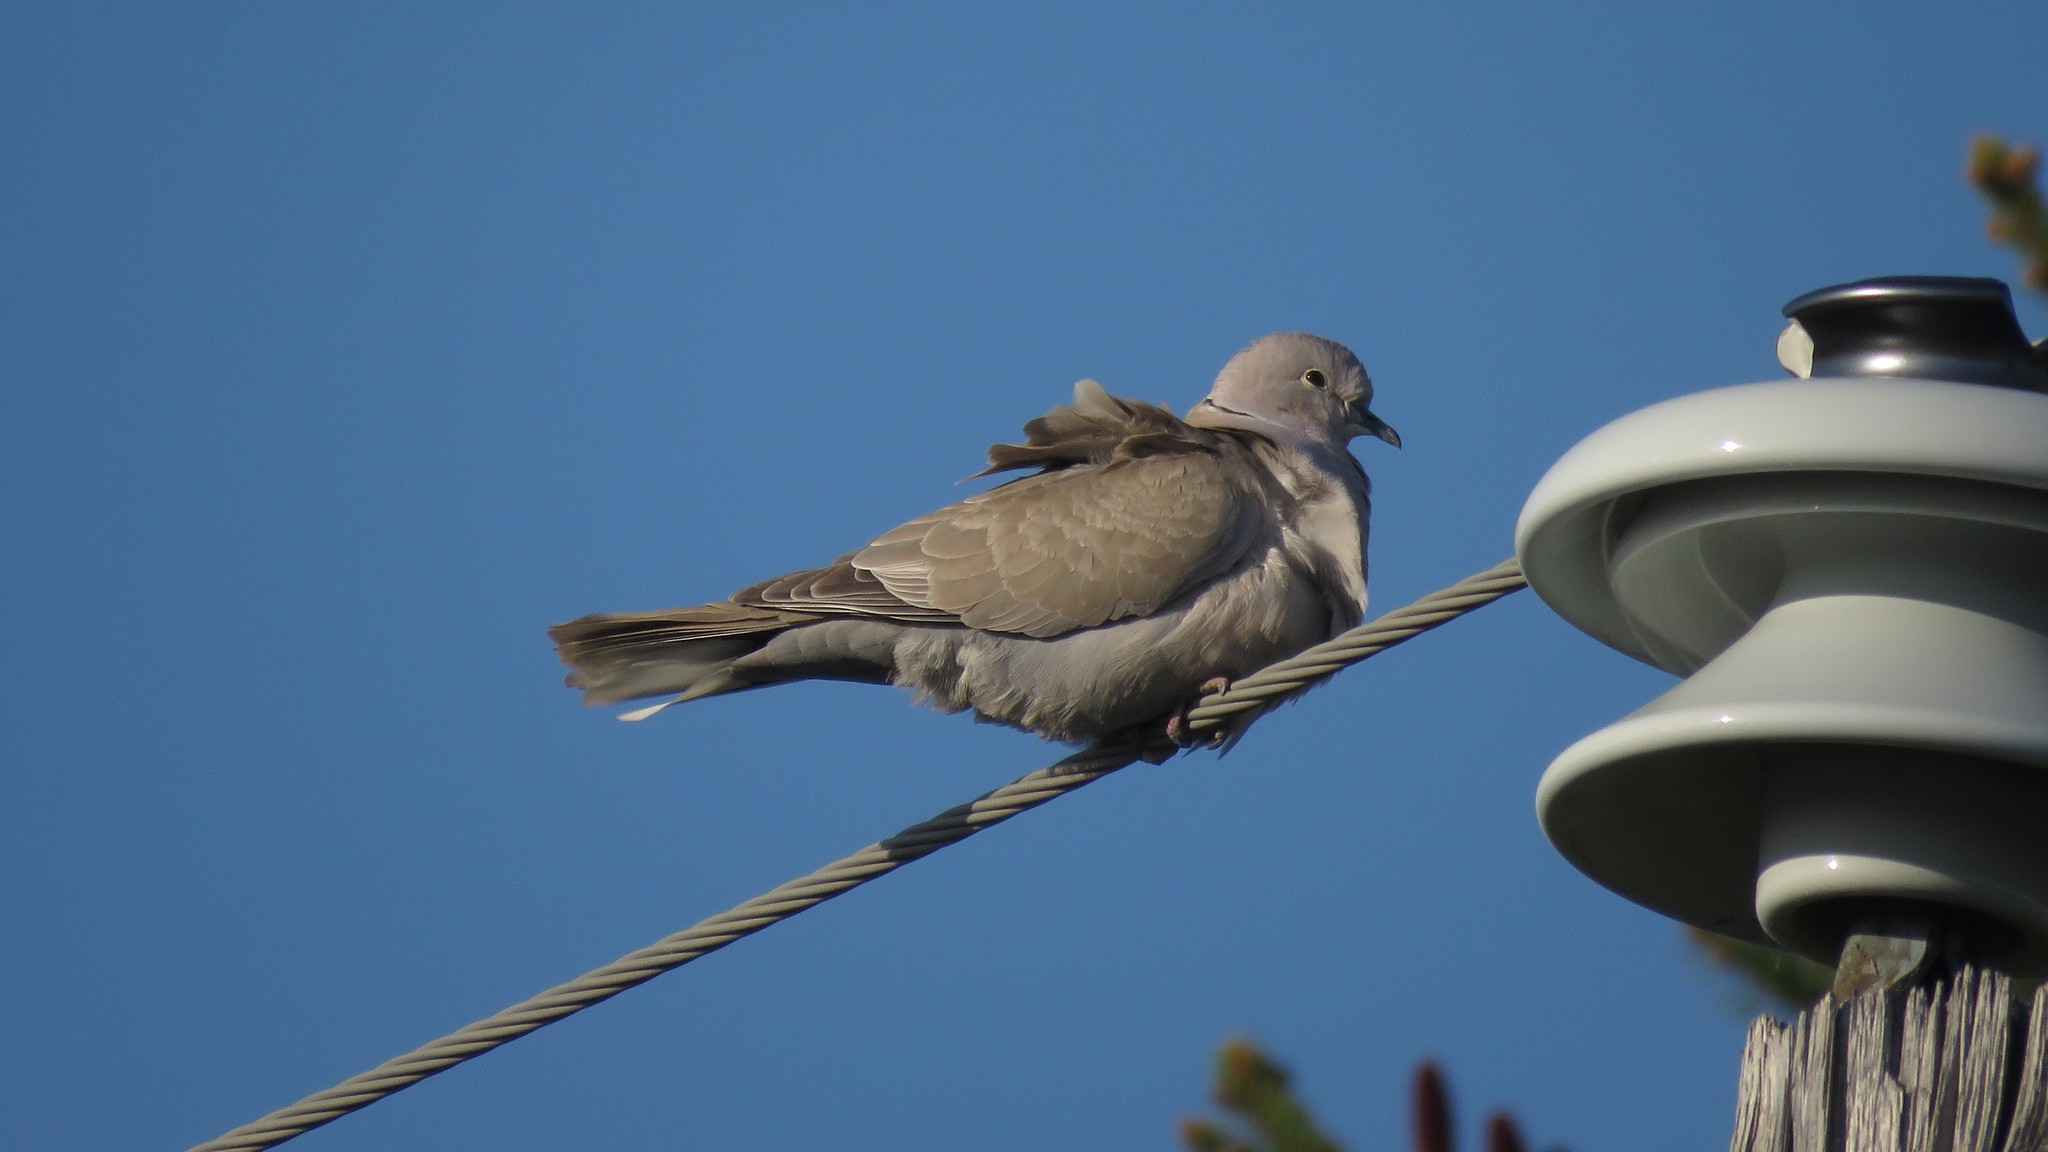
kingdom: Animalia
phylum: Chordata
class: Aves
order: Columbiformes
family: Columbidae
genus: Streptopelia
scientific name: Streptopelia decaocto
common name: Eurasian collared dove
